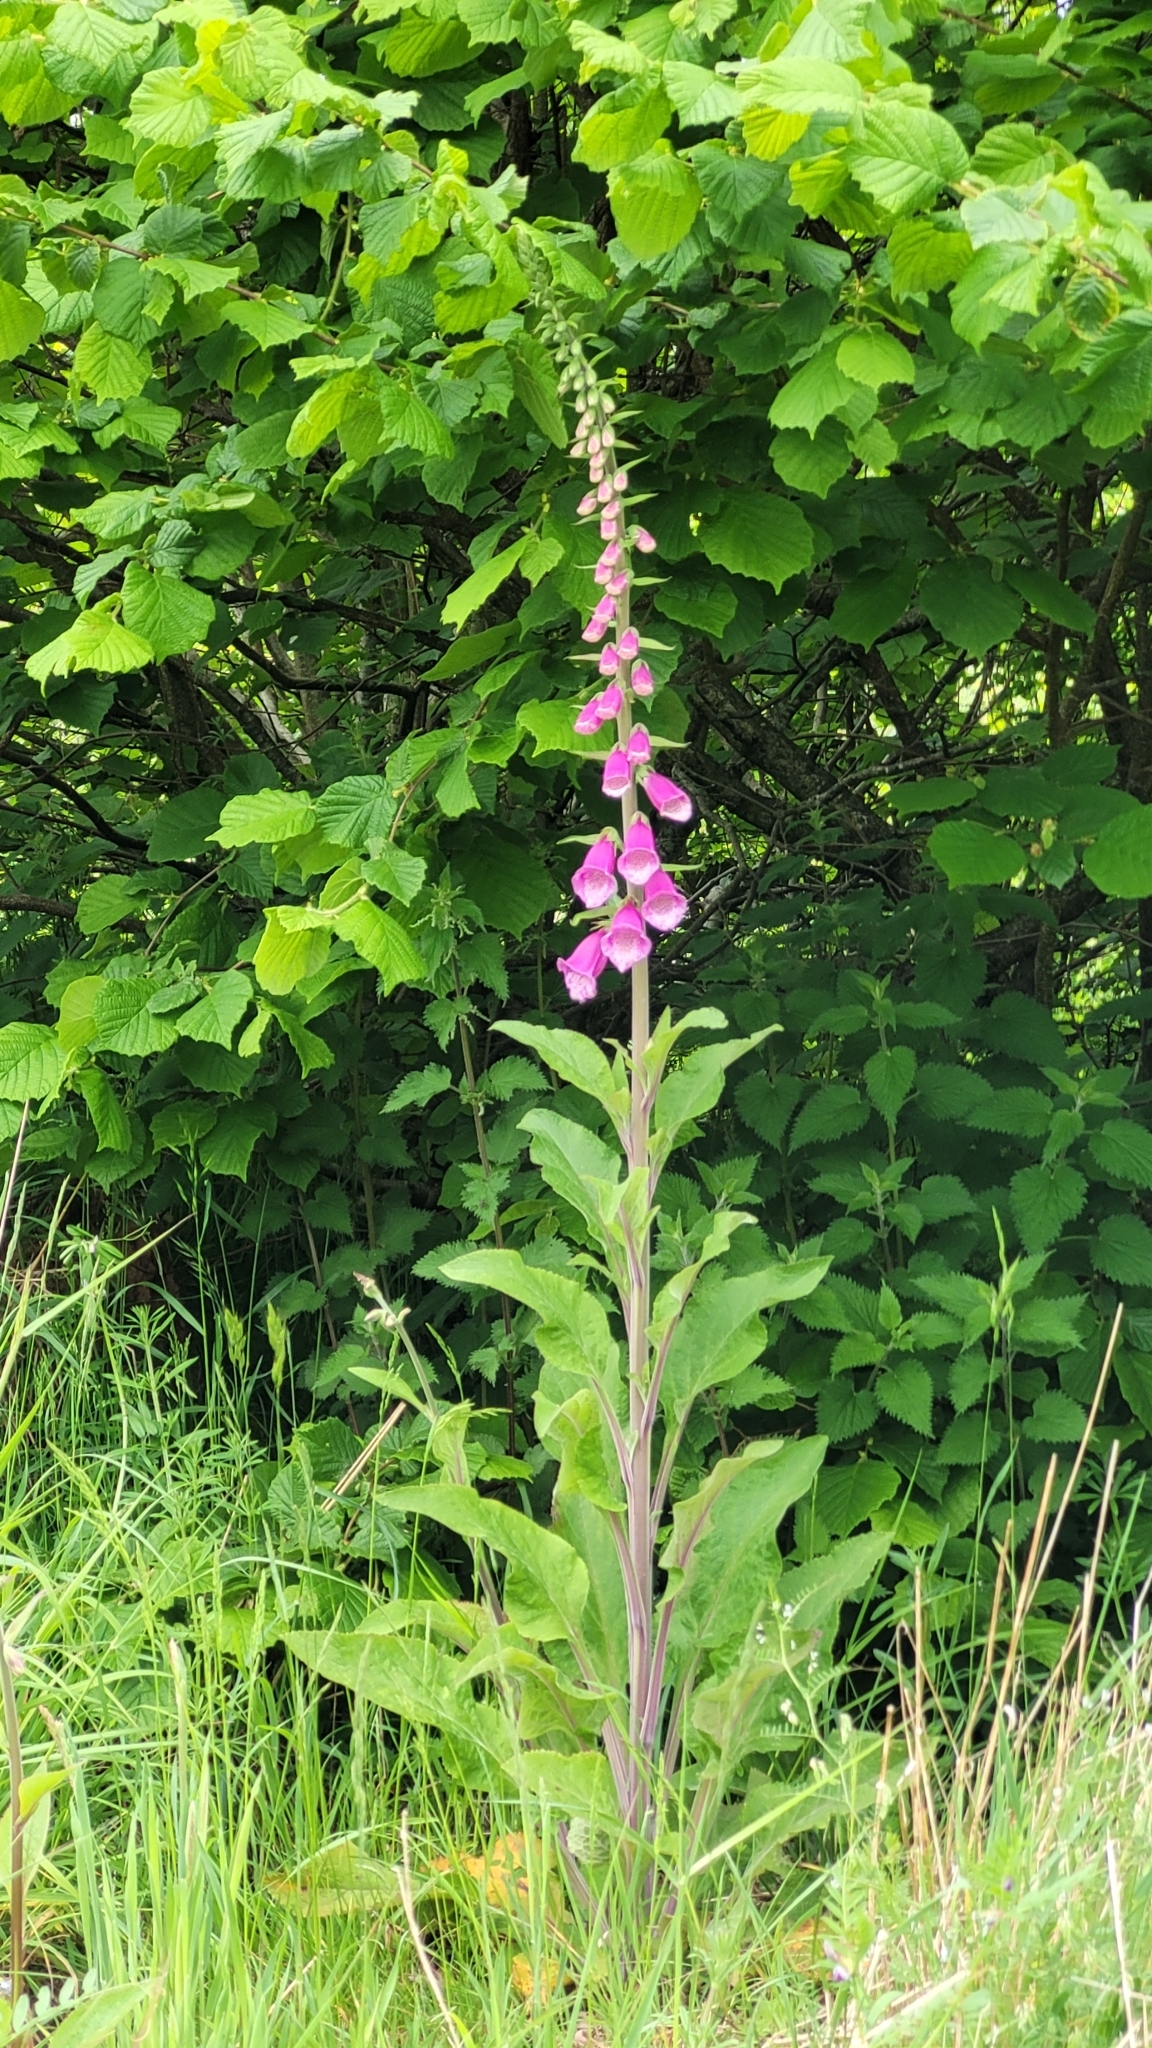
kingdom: Plantae
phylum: Tracheophyta
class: Magnoliopsida
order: Lamiales
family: Plantaginaceae
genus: Digitalis
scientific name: Digitalis purpurea
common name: Foxglove
